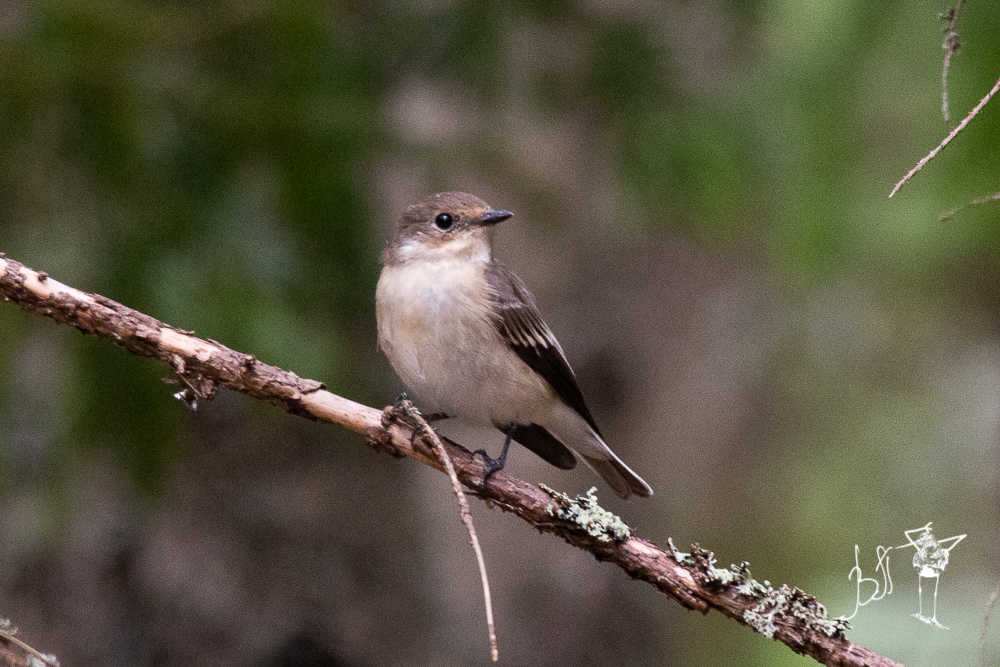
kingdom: Animalia
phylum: Chordata
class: Aves
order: Passeriformes
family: Muscicapidae
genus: Ficedula
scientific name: Ficedula hypoleuca
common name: European pied flycatcher
